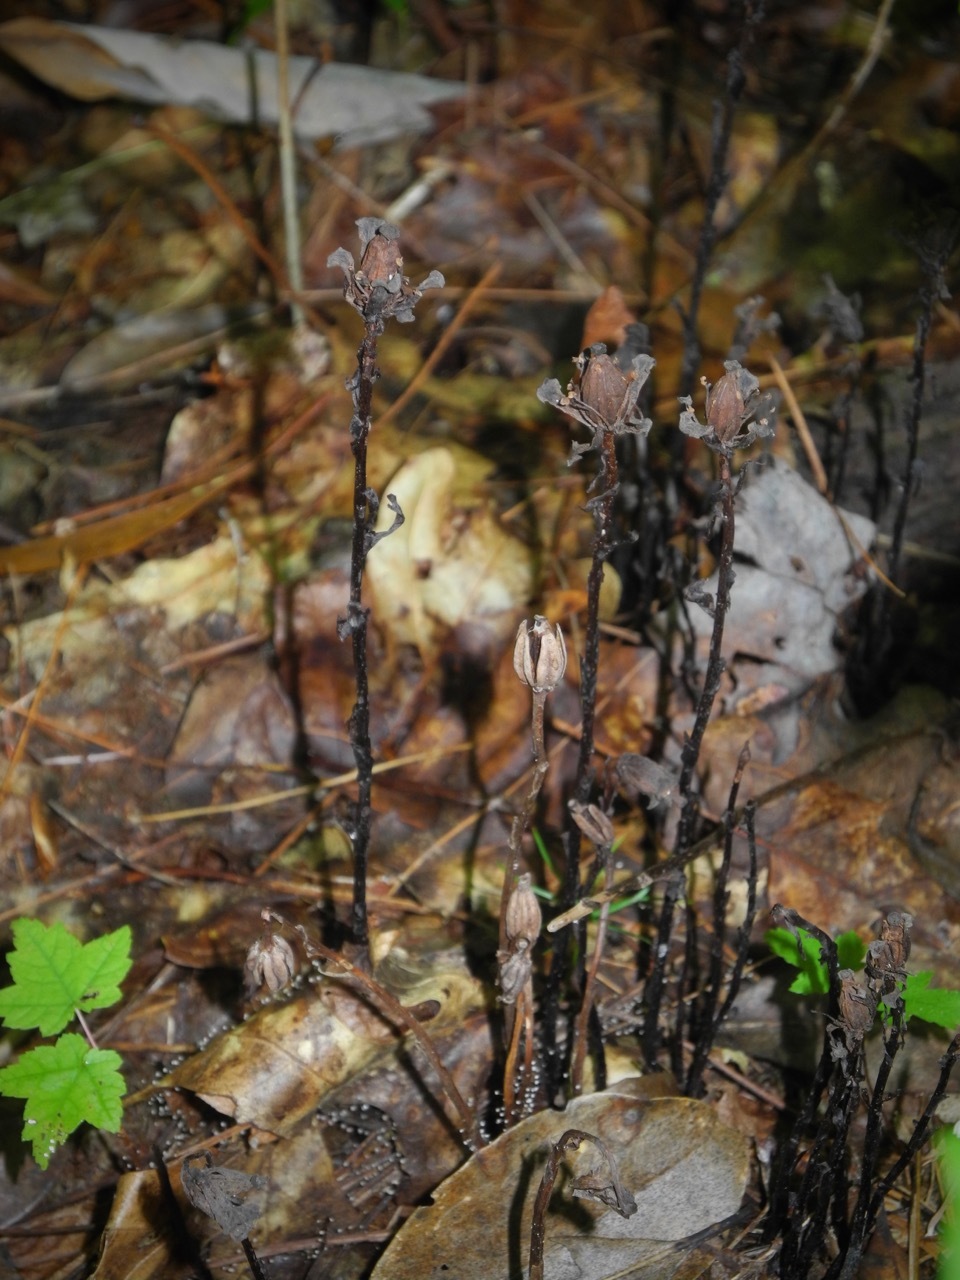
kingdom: Plantae
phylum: Tracheophyta
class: Magnoliopsida
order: Ericales
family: Ericaceae
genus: Monotropa
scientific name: Monotropa uniflora
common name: Convulsion root
